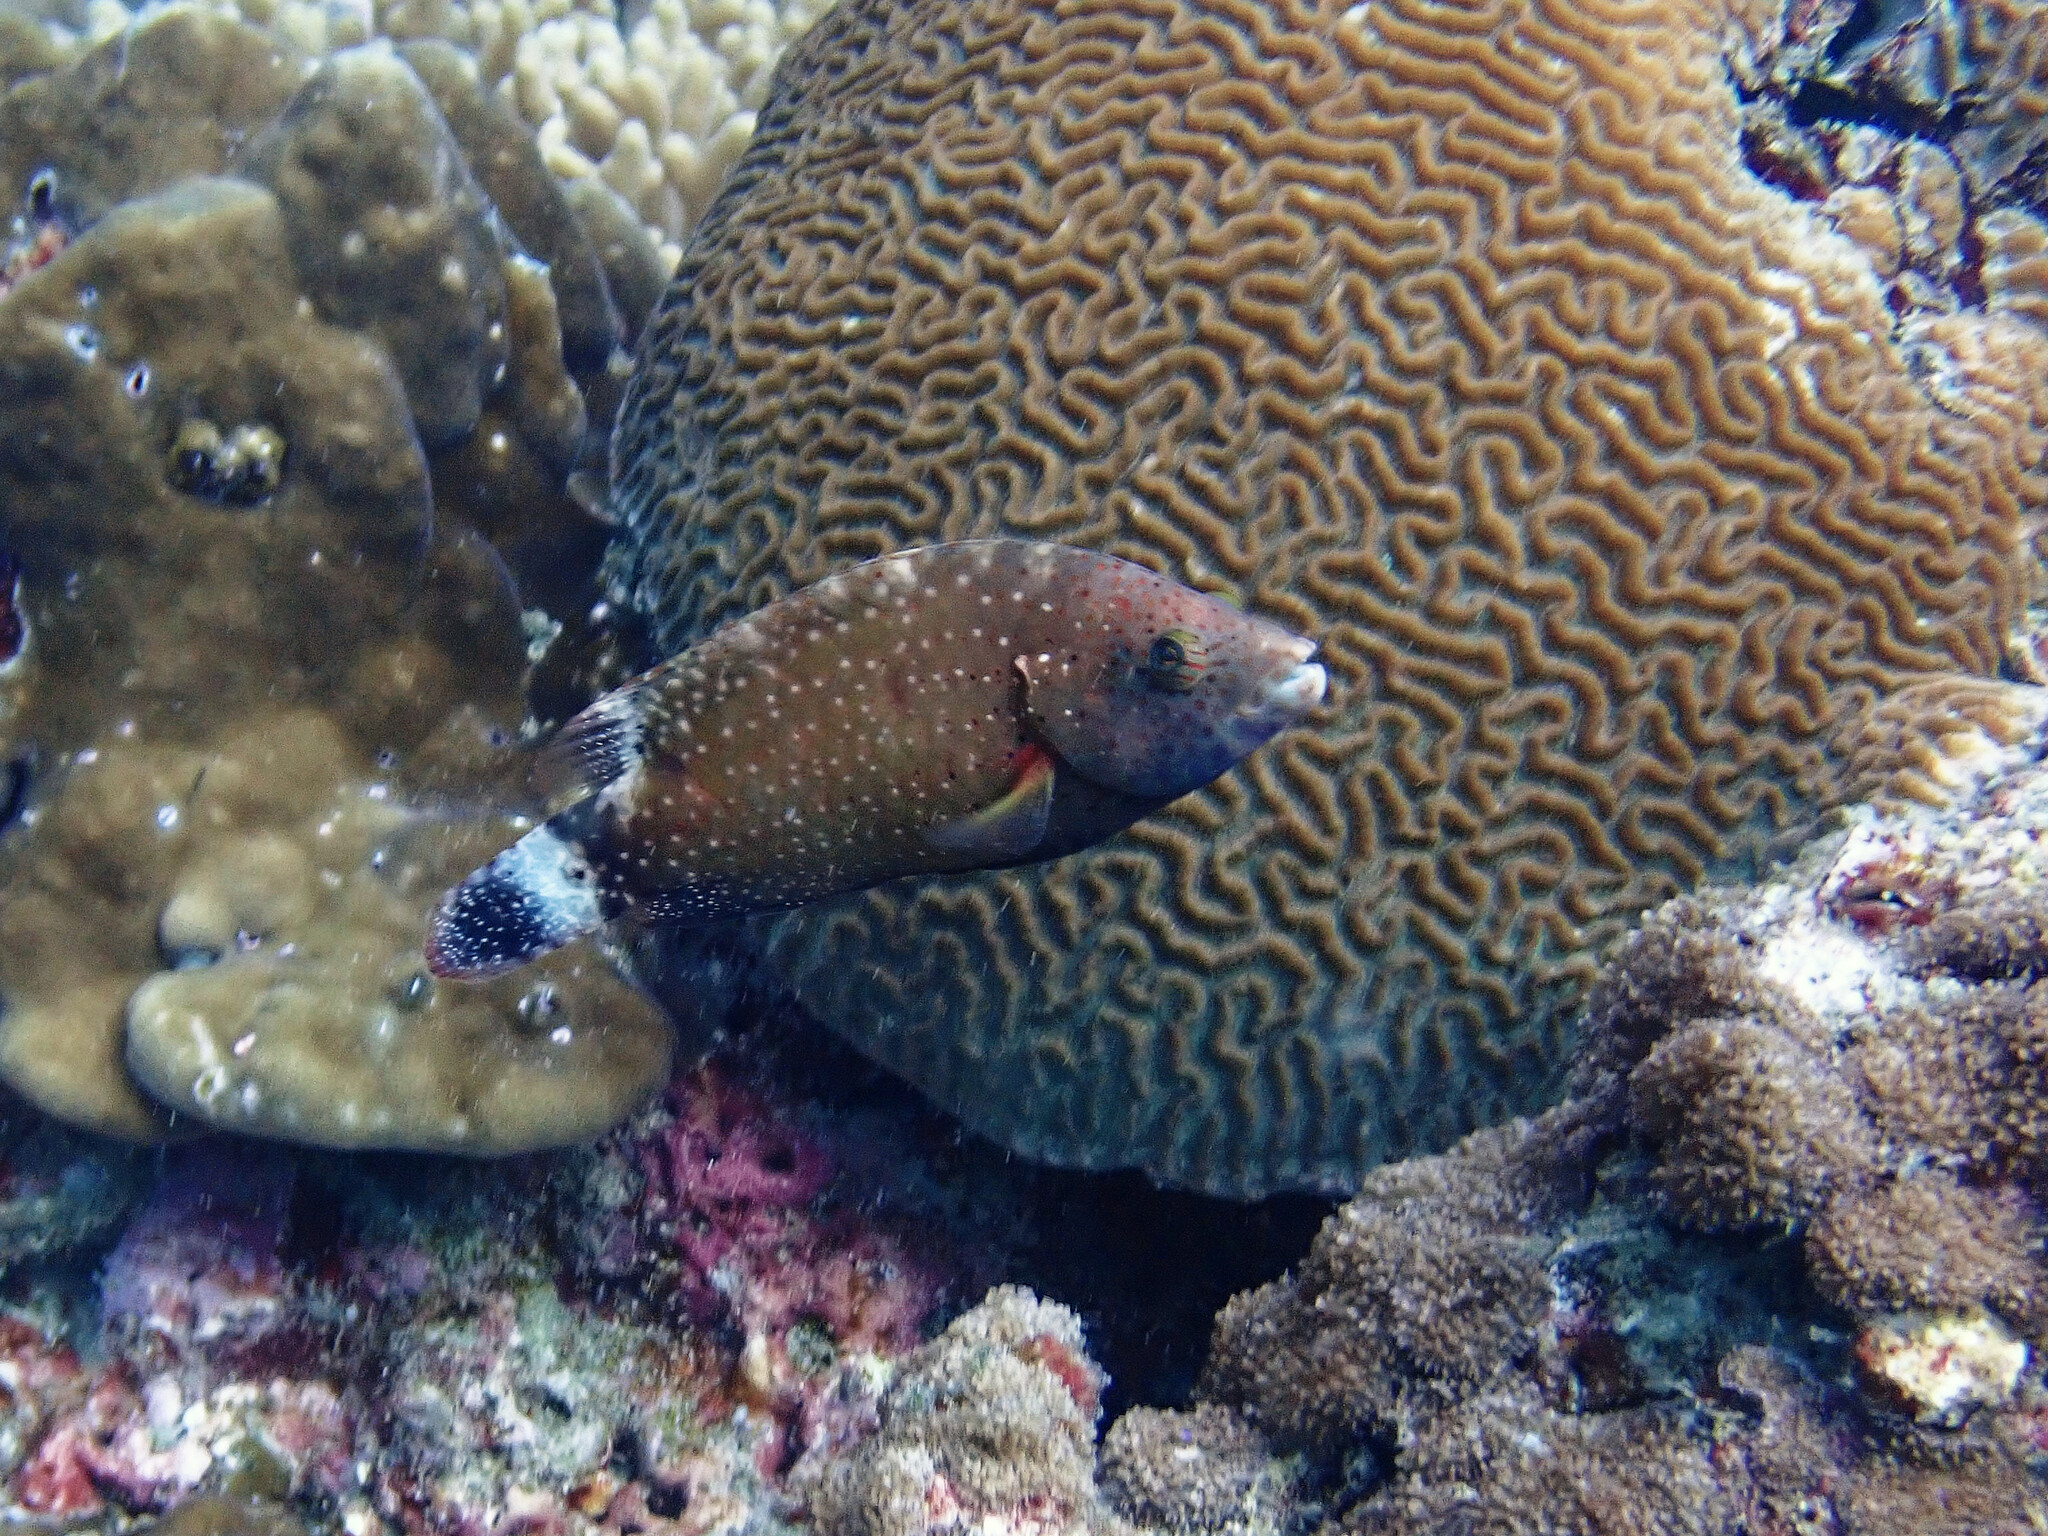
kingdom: Animalia
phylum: Chordata
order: Perciformes
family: Labridae
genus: Cheilinus
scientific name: Cheilinus chlorourus
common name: Floral wrasse
